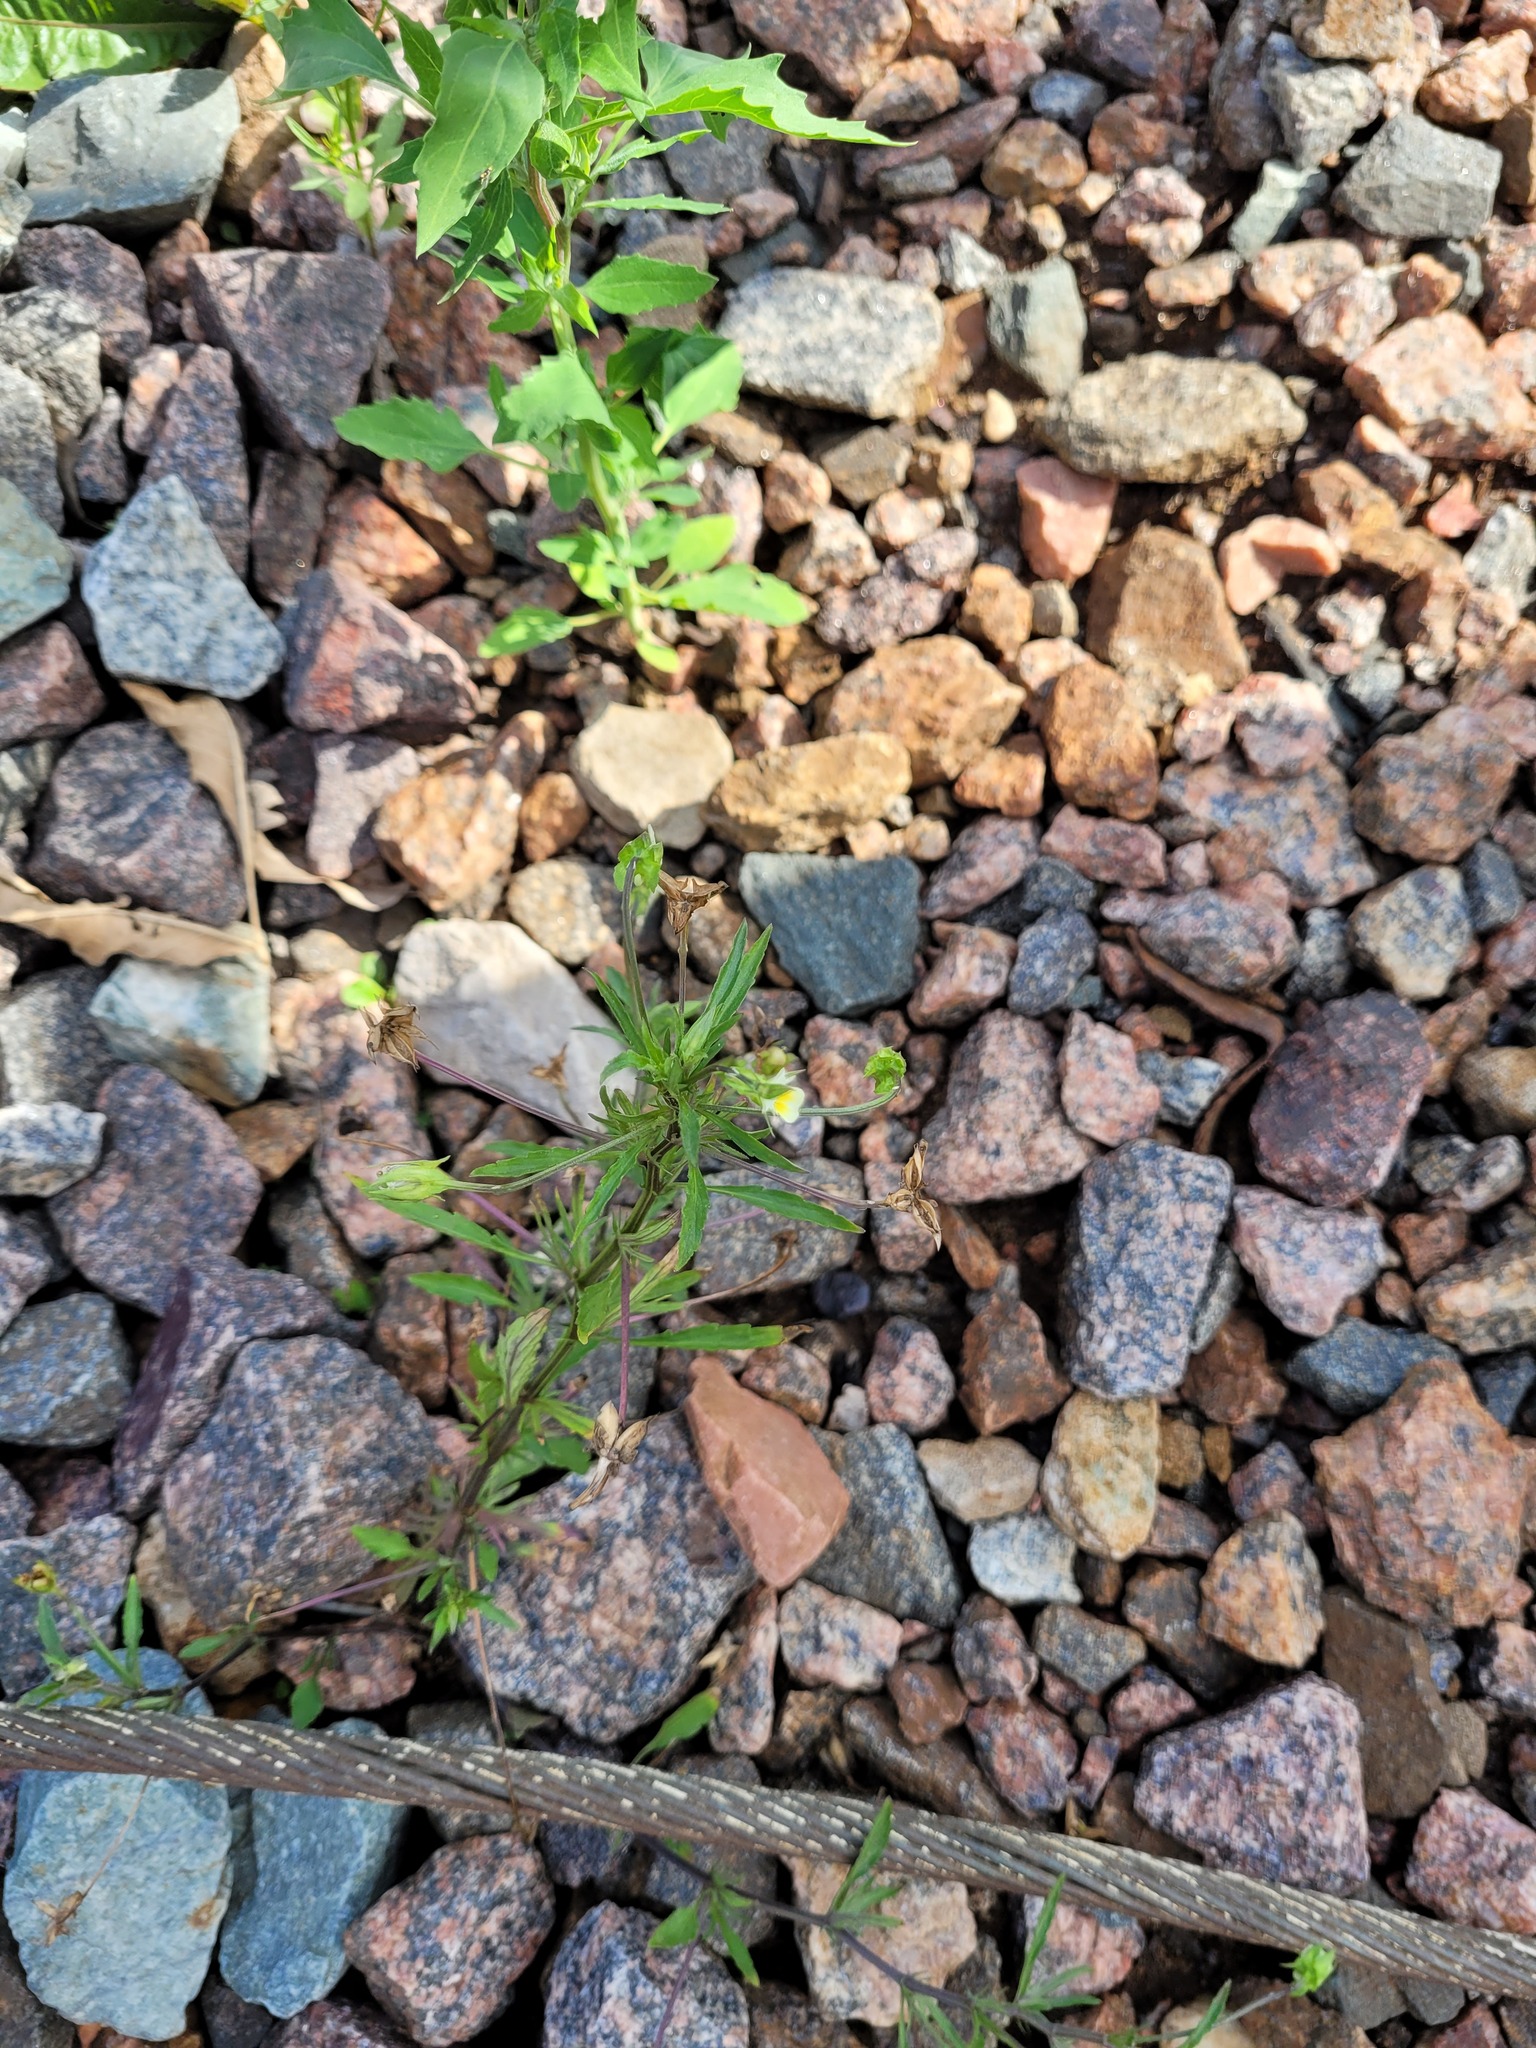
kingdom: Plantae
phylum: Tracheophyta
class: Magnoliopsida
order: Malpighiales
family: Violaceae
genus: Viola
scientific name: Viola arvensis
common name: Field pansy
